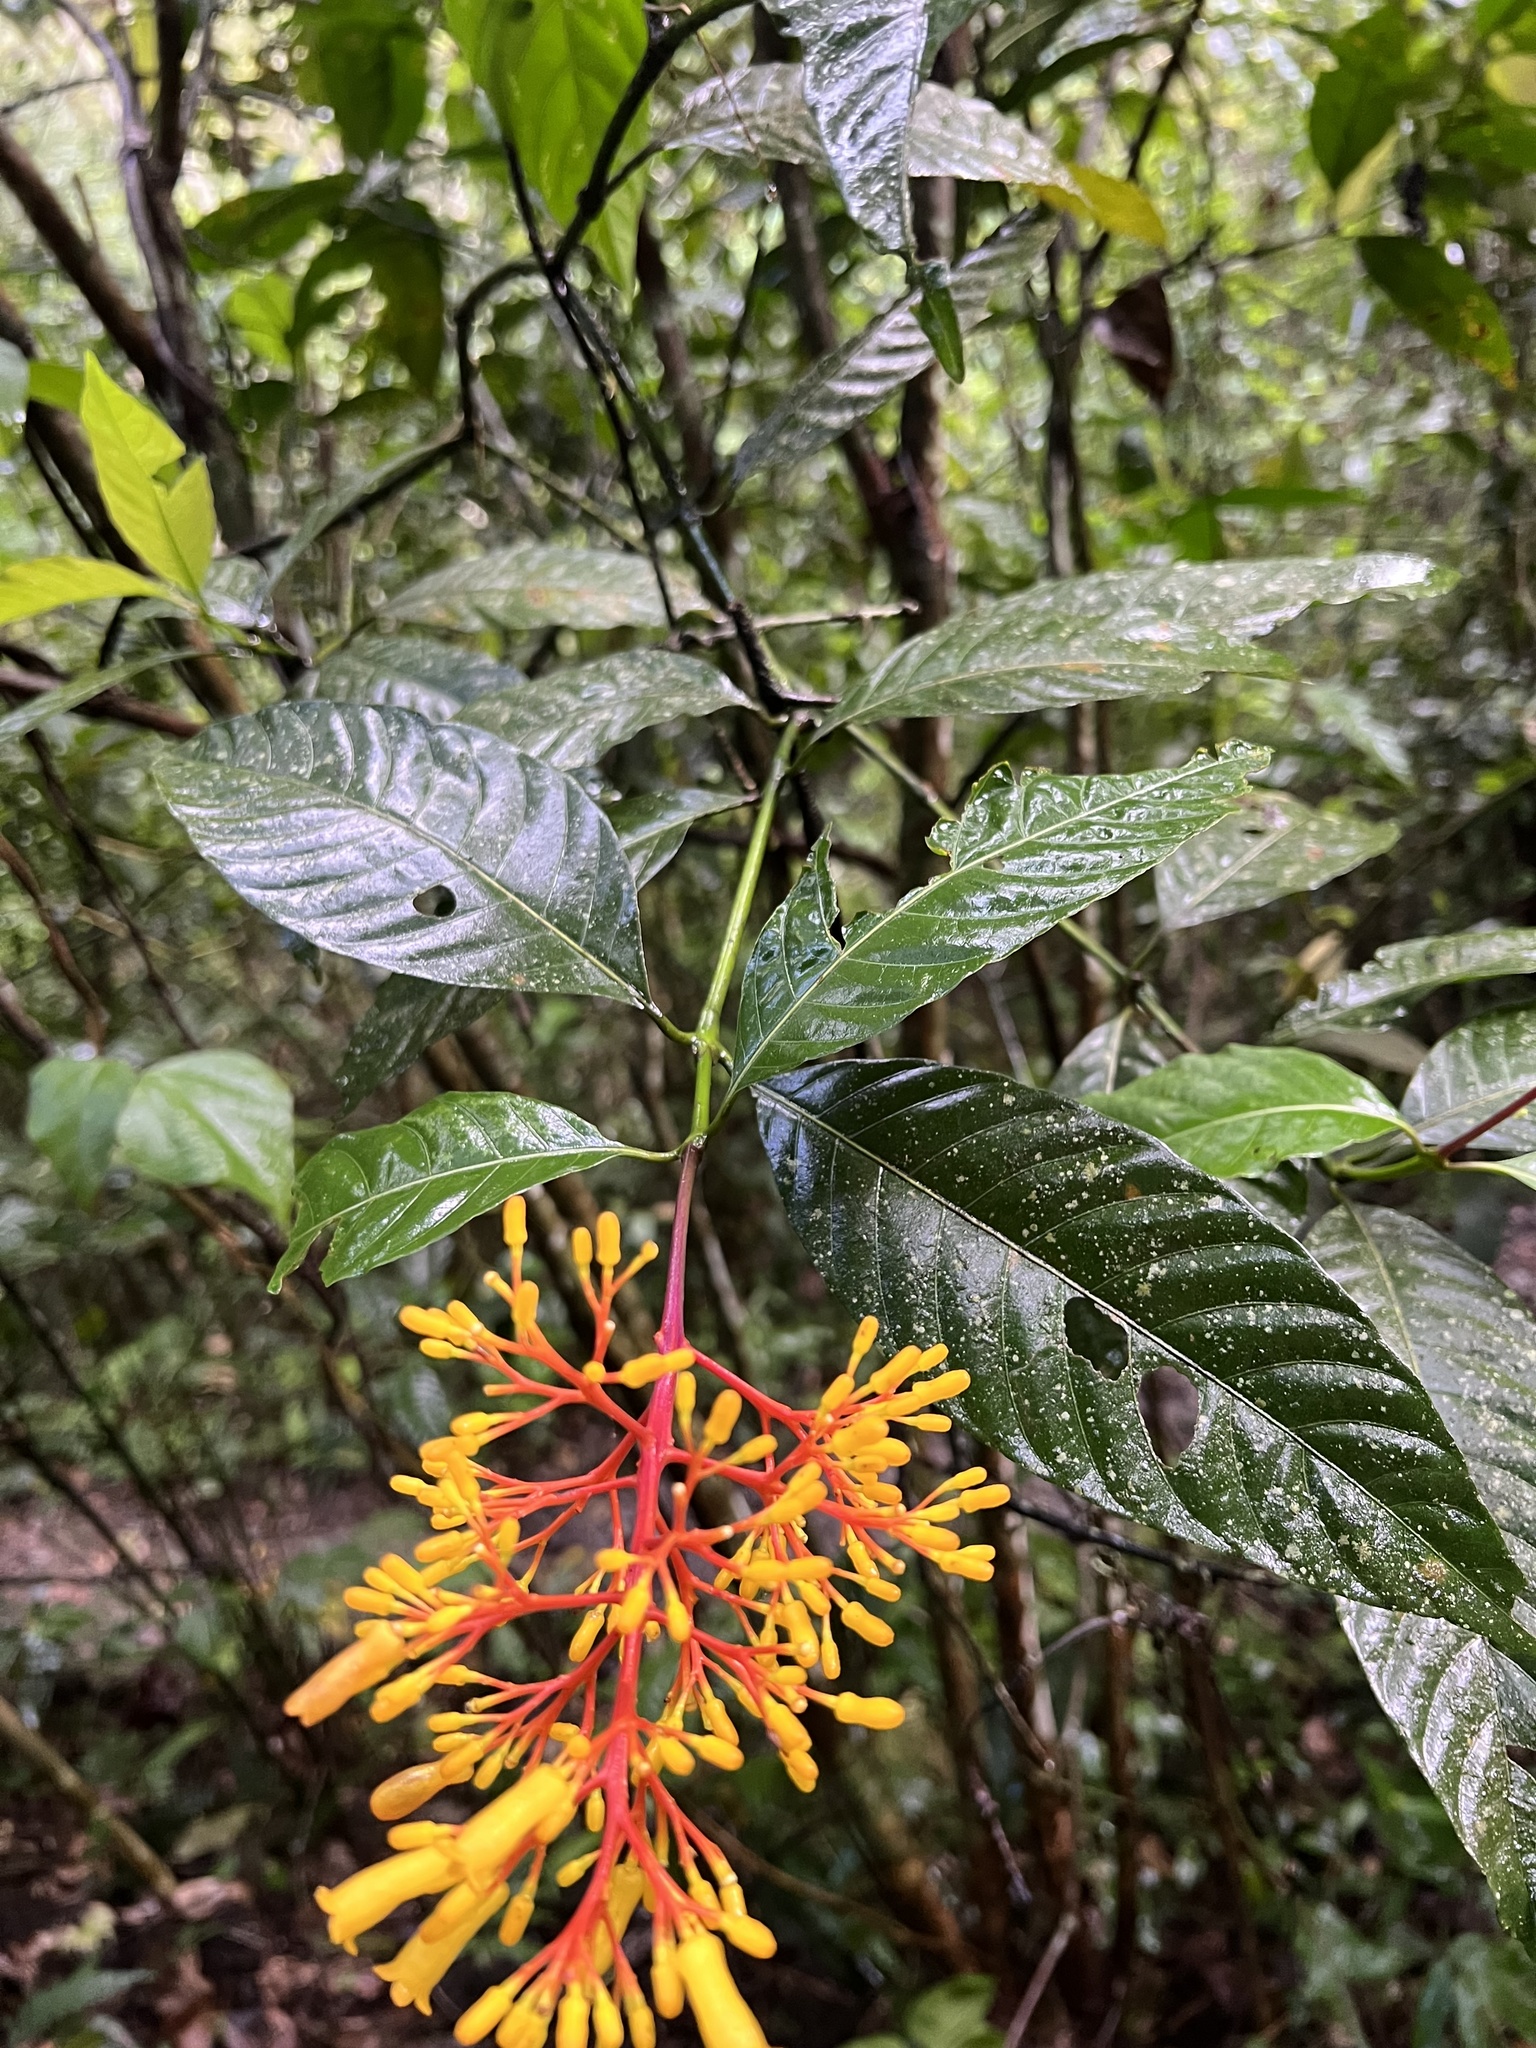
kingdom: Plantae
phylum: Tracheophyta
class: Magnoliopsida
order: Gentianales
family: Rubiaceae
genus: Palicourea
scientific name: Palicourea guianensis
